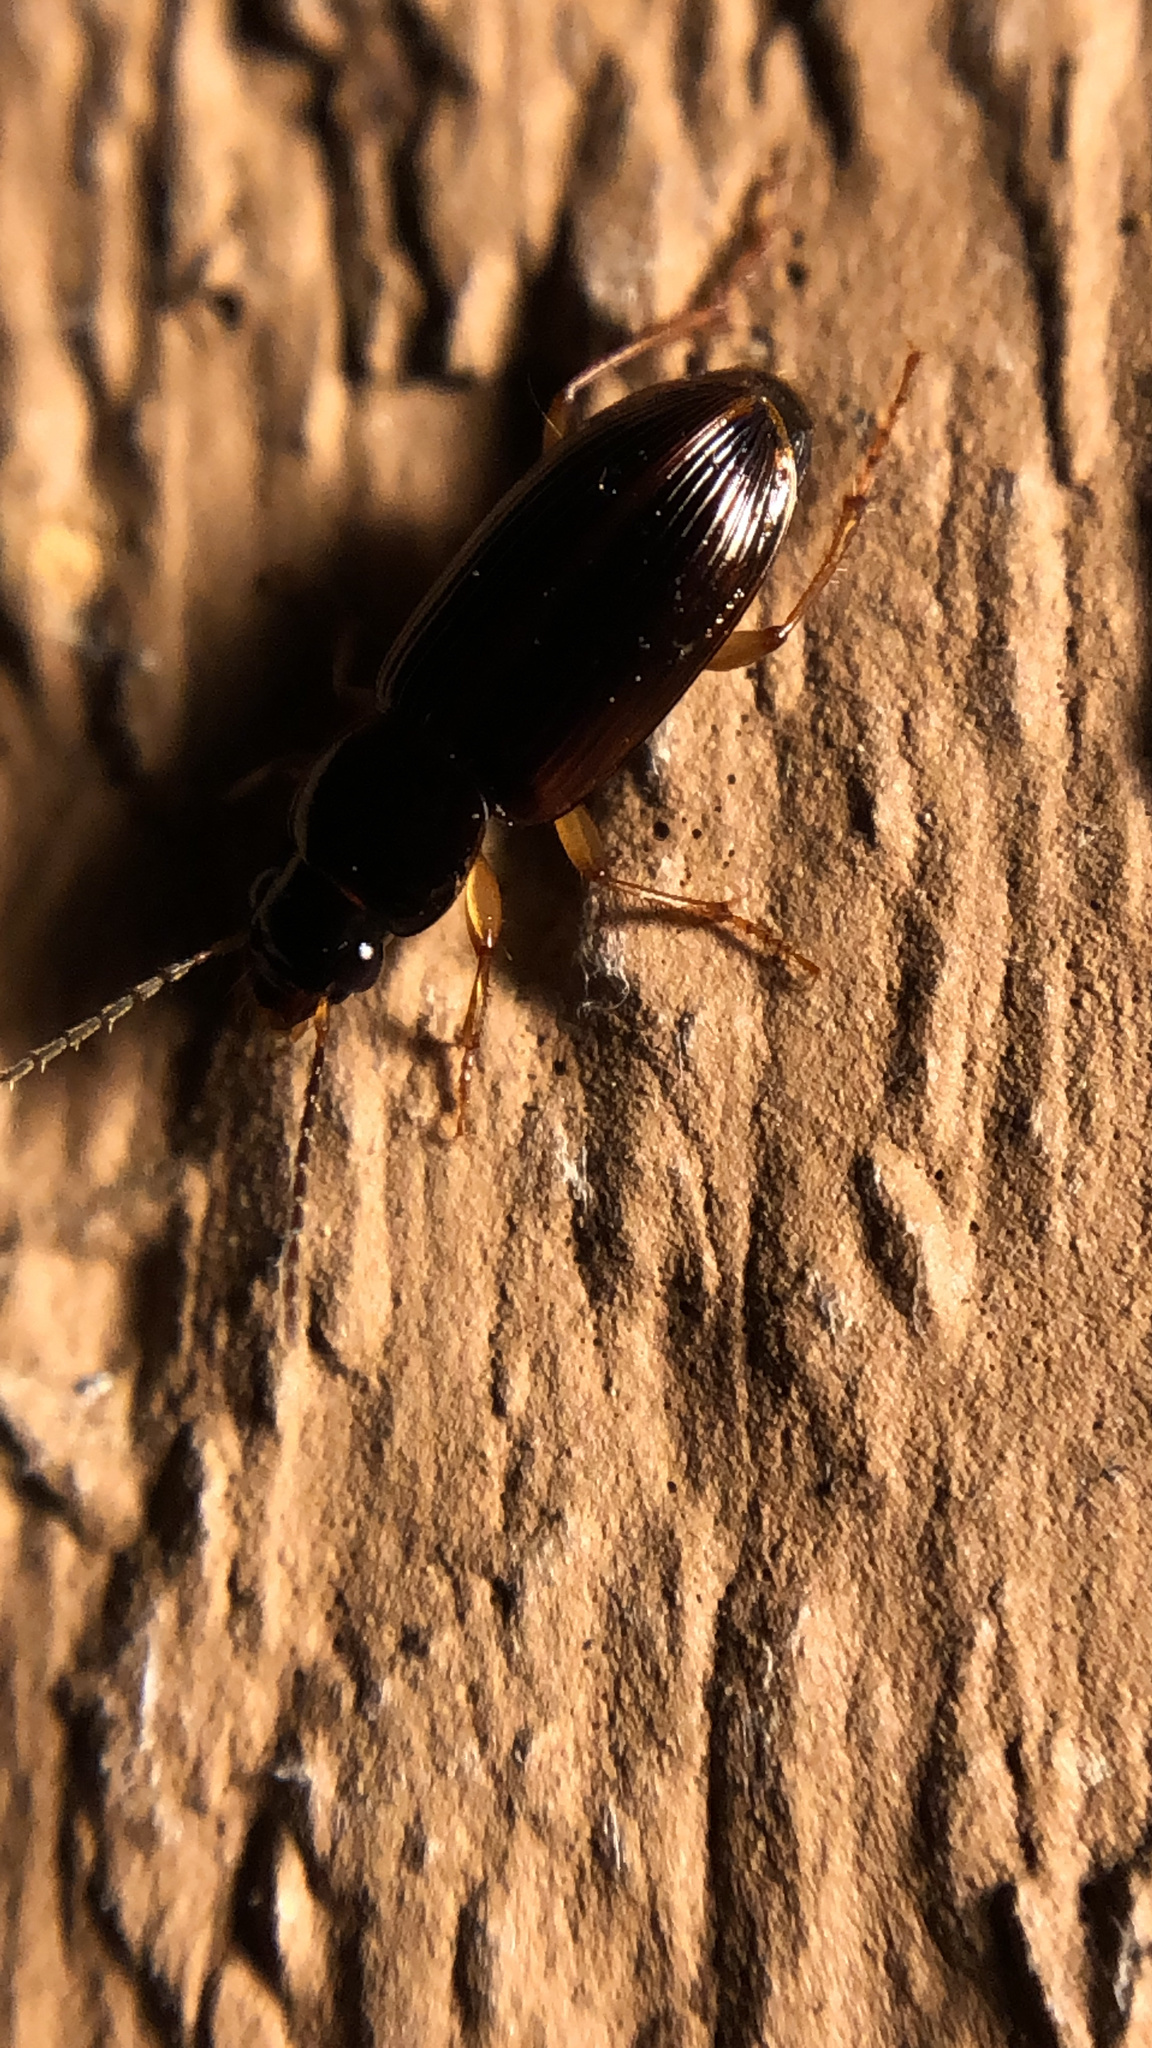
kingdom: Animalia
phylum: Arthropoda
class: Insecta
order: Coleoptera
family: Carabidae
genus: Stenolophus
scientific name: Stenolophus ochropezus
